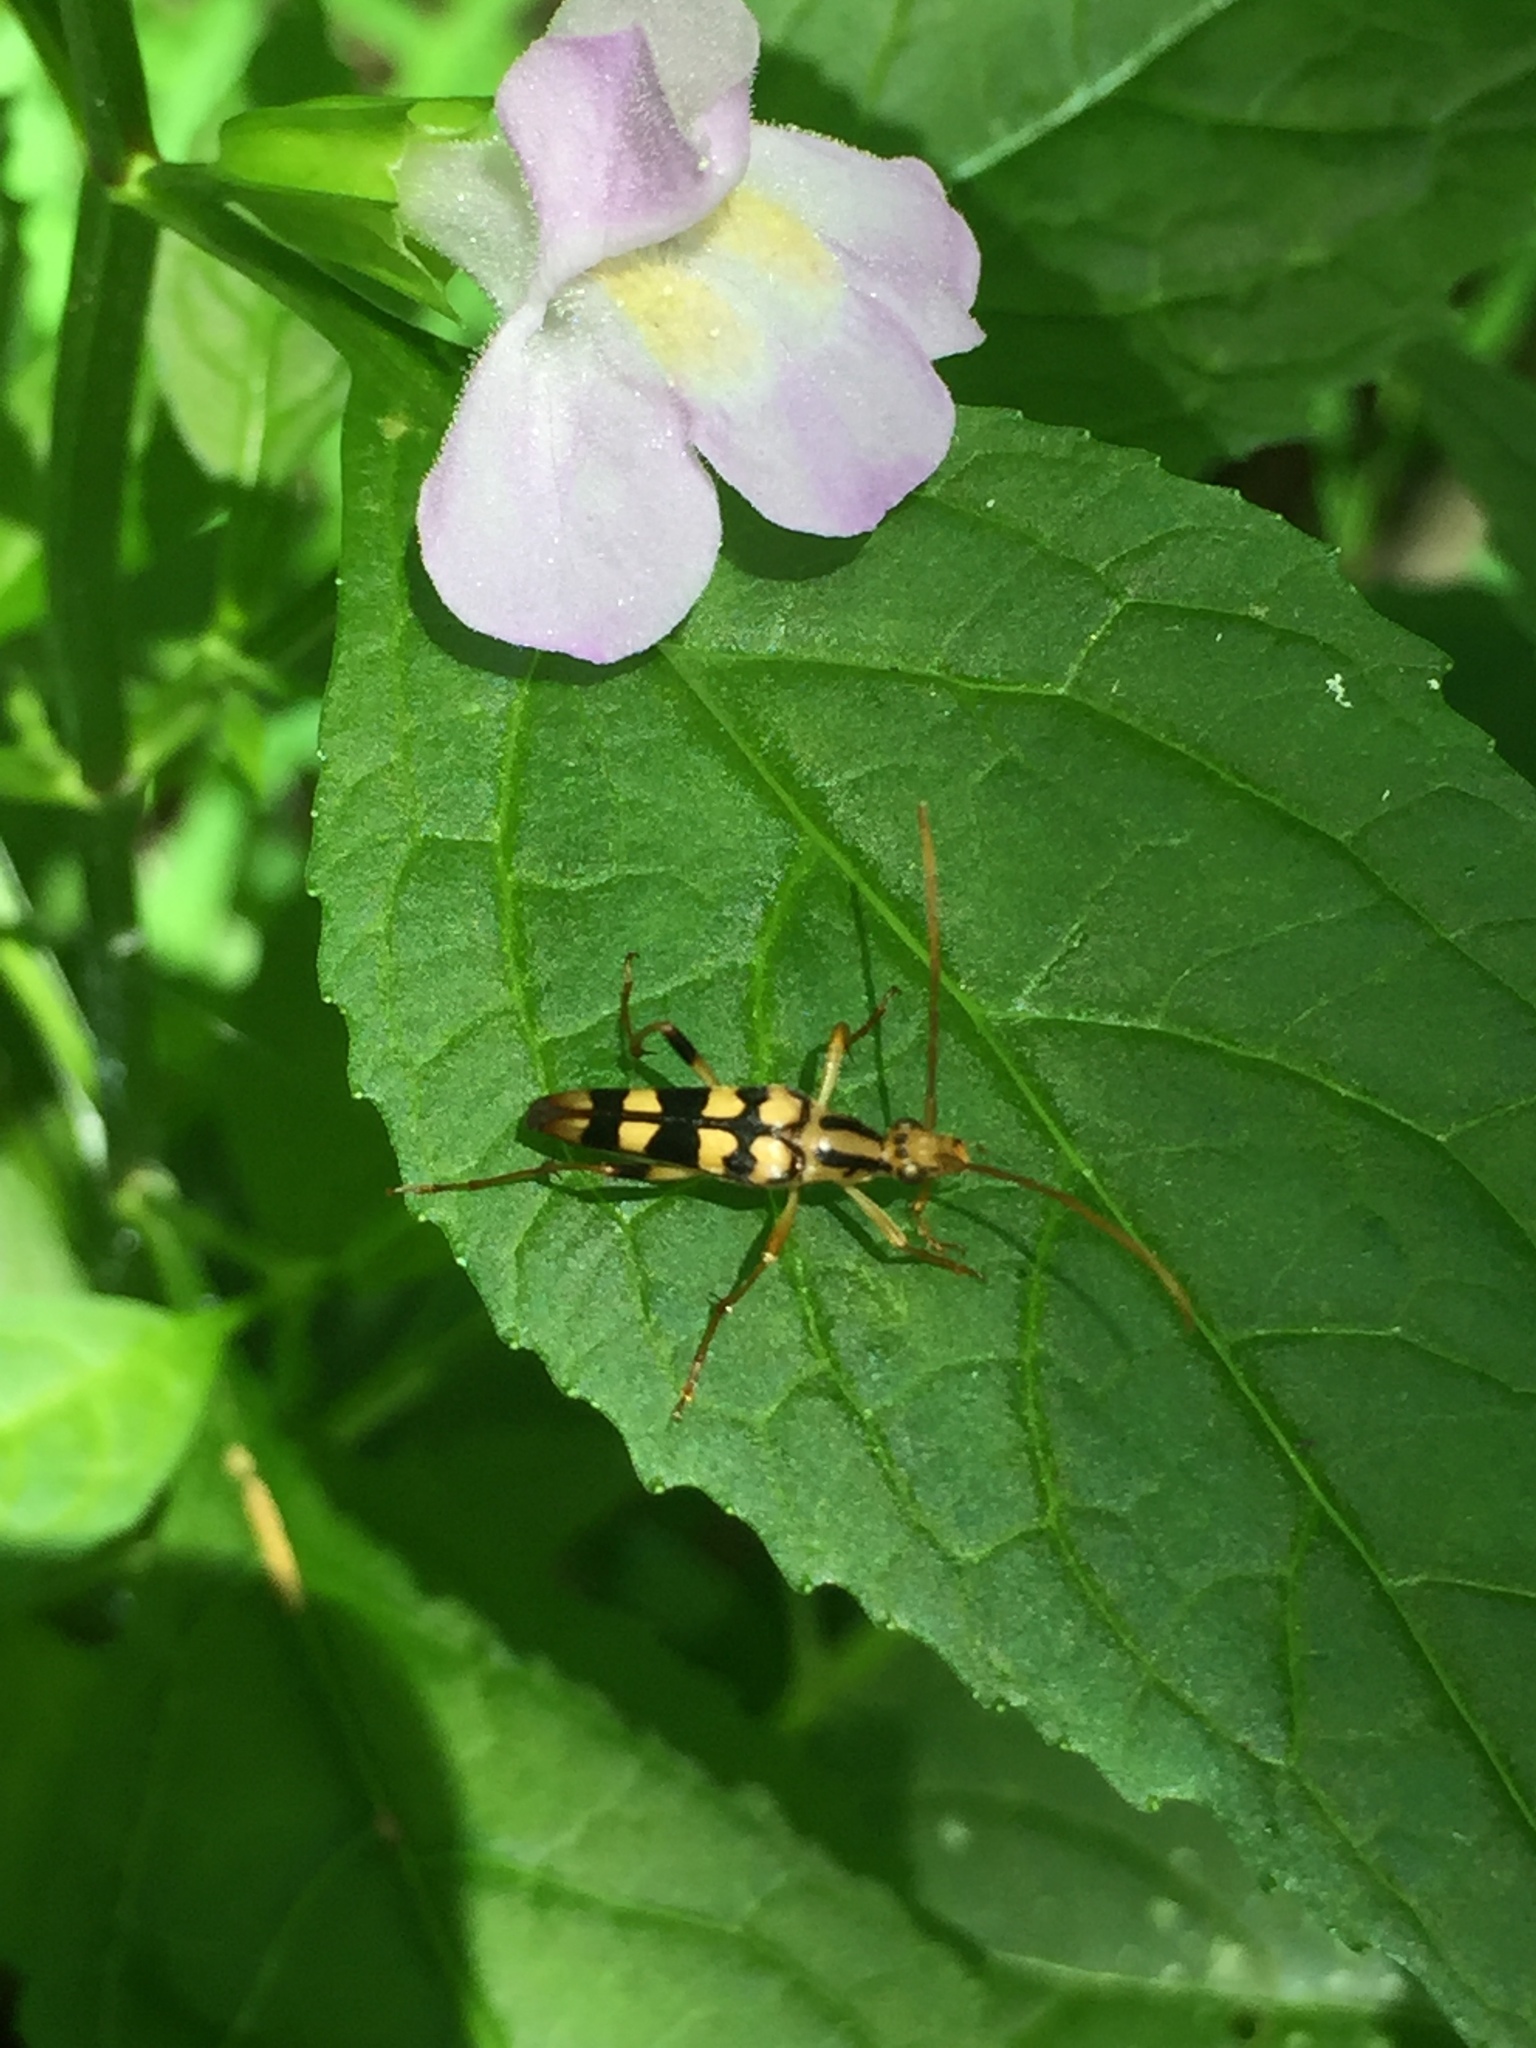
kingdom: Animalia
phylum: Arthropoda
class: Insecta
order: Coleoptera
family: Cerambycidae
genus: Strangalia
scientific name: Strangalia luteicornis
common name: Yellow-horned flower longhorn beetle
